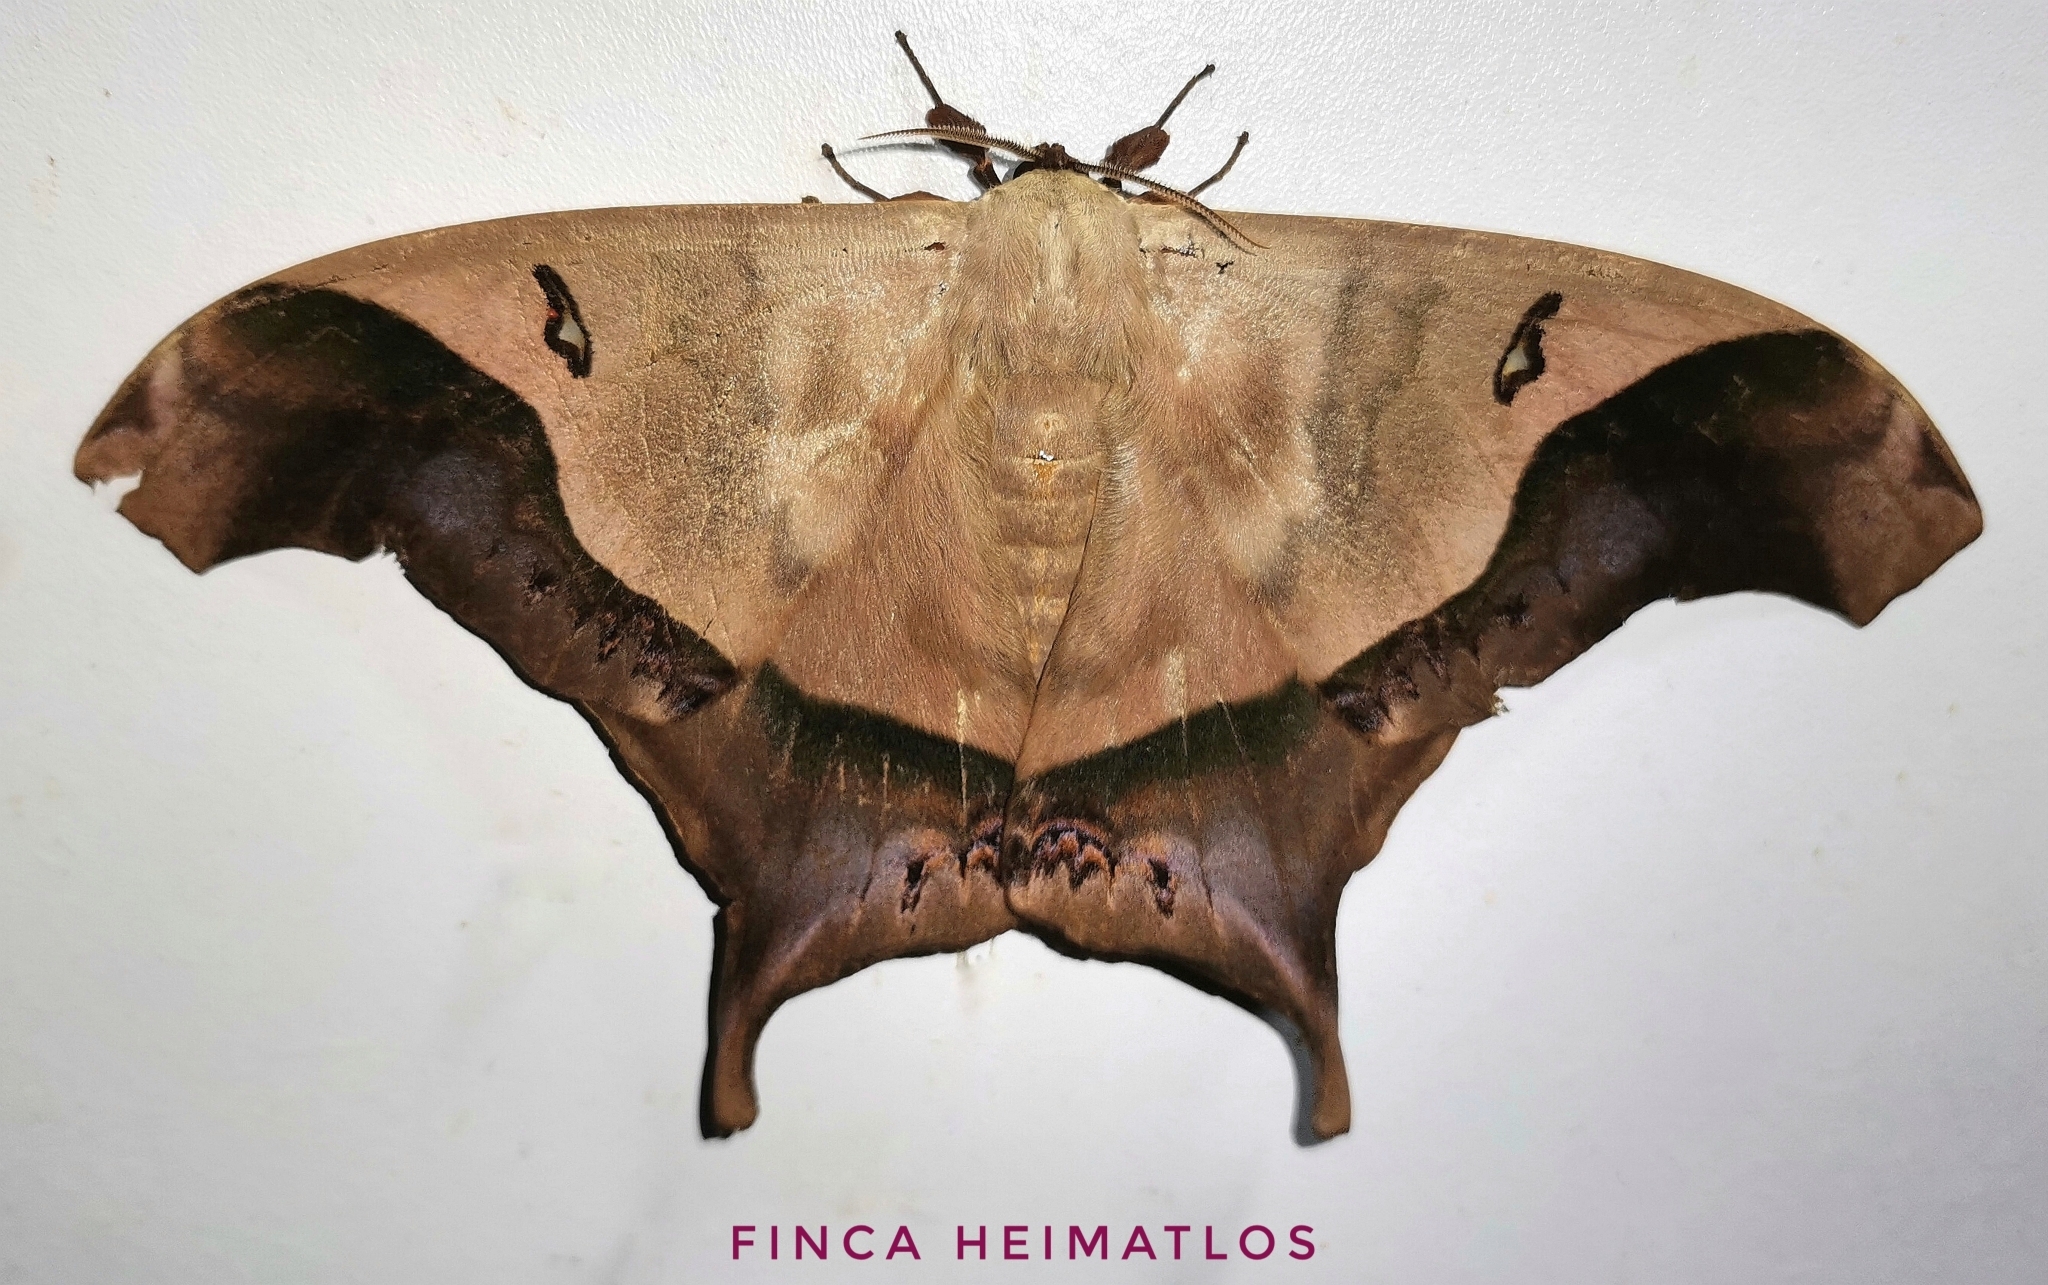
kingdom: Animalia
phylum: Arthropoda
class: Insecta
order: Lepidoptera
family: Saturniidae
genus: Titaea
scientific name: Titaea timur
